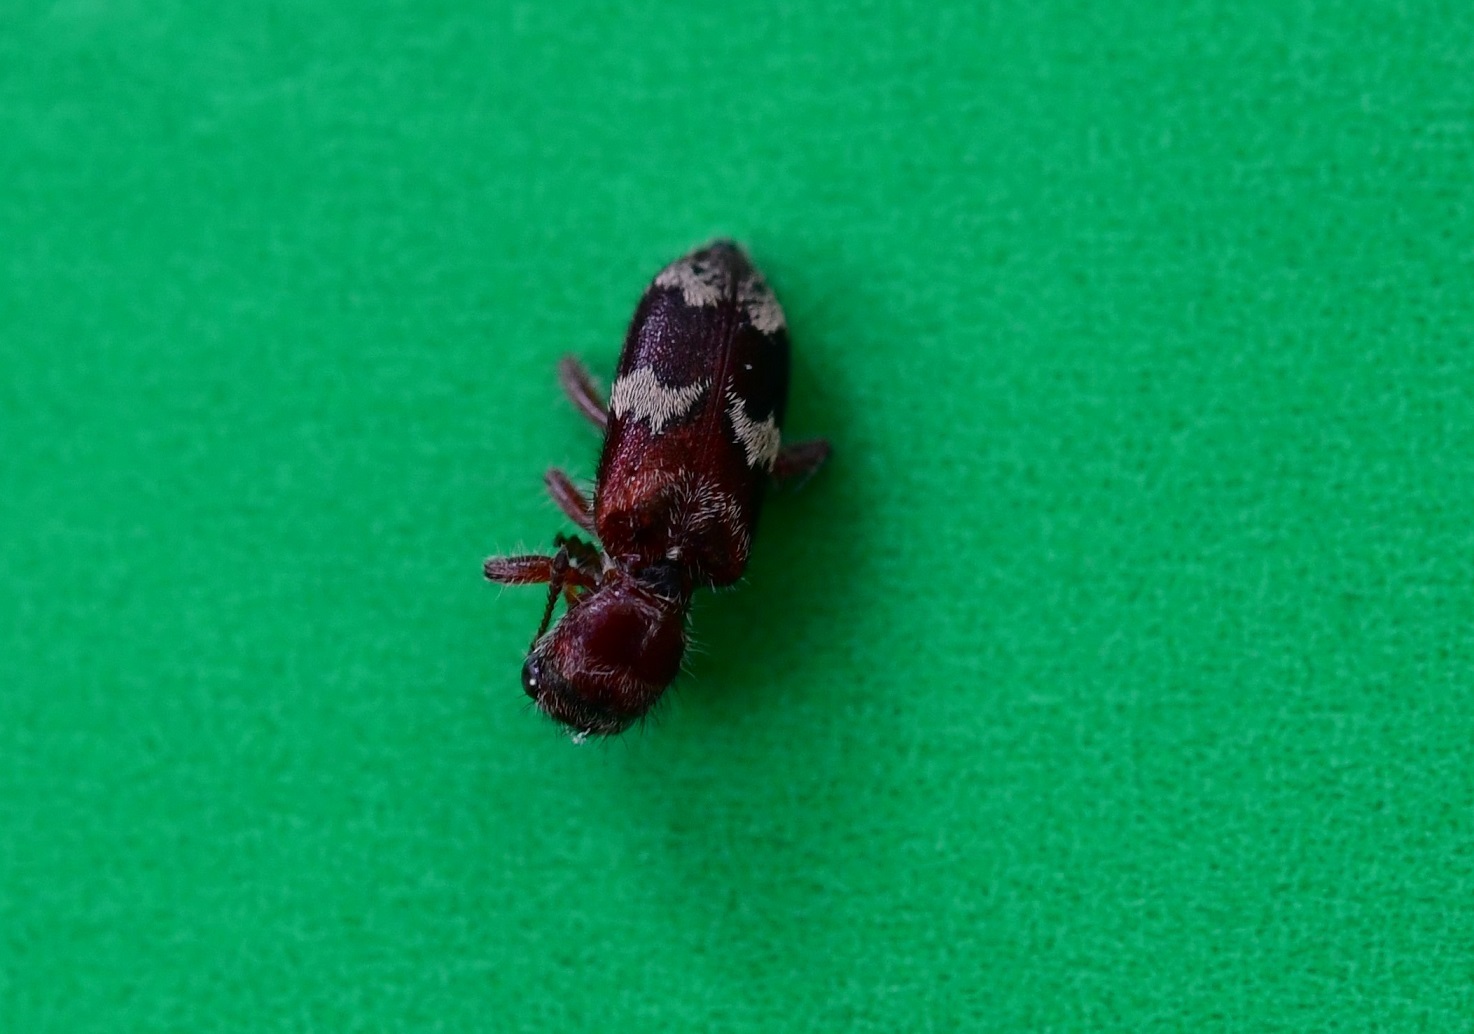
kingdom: Animalia
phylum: Arthropoda
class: Insecta
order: Coleoptera
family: Cleridae
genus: Enoclerus
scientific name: Enoclerus
